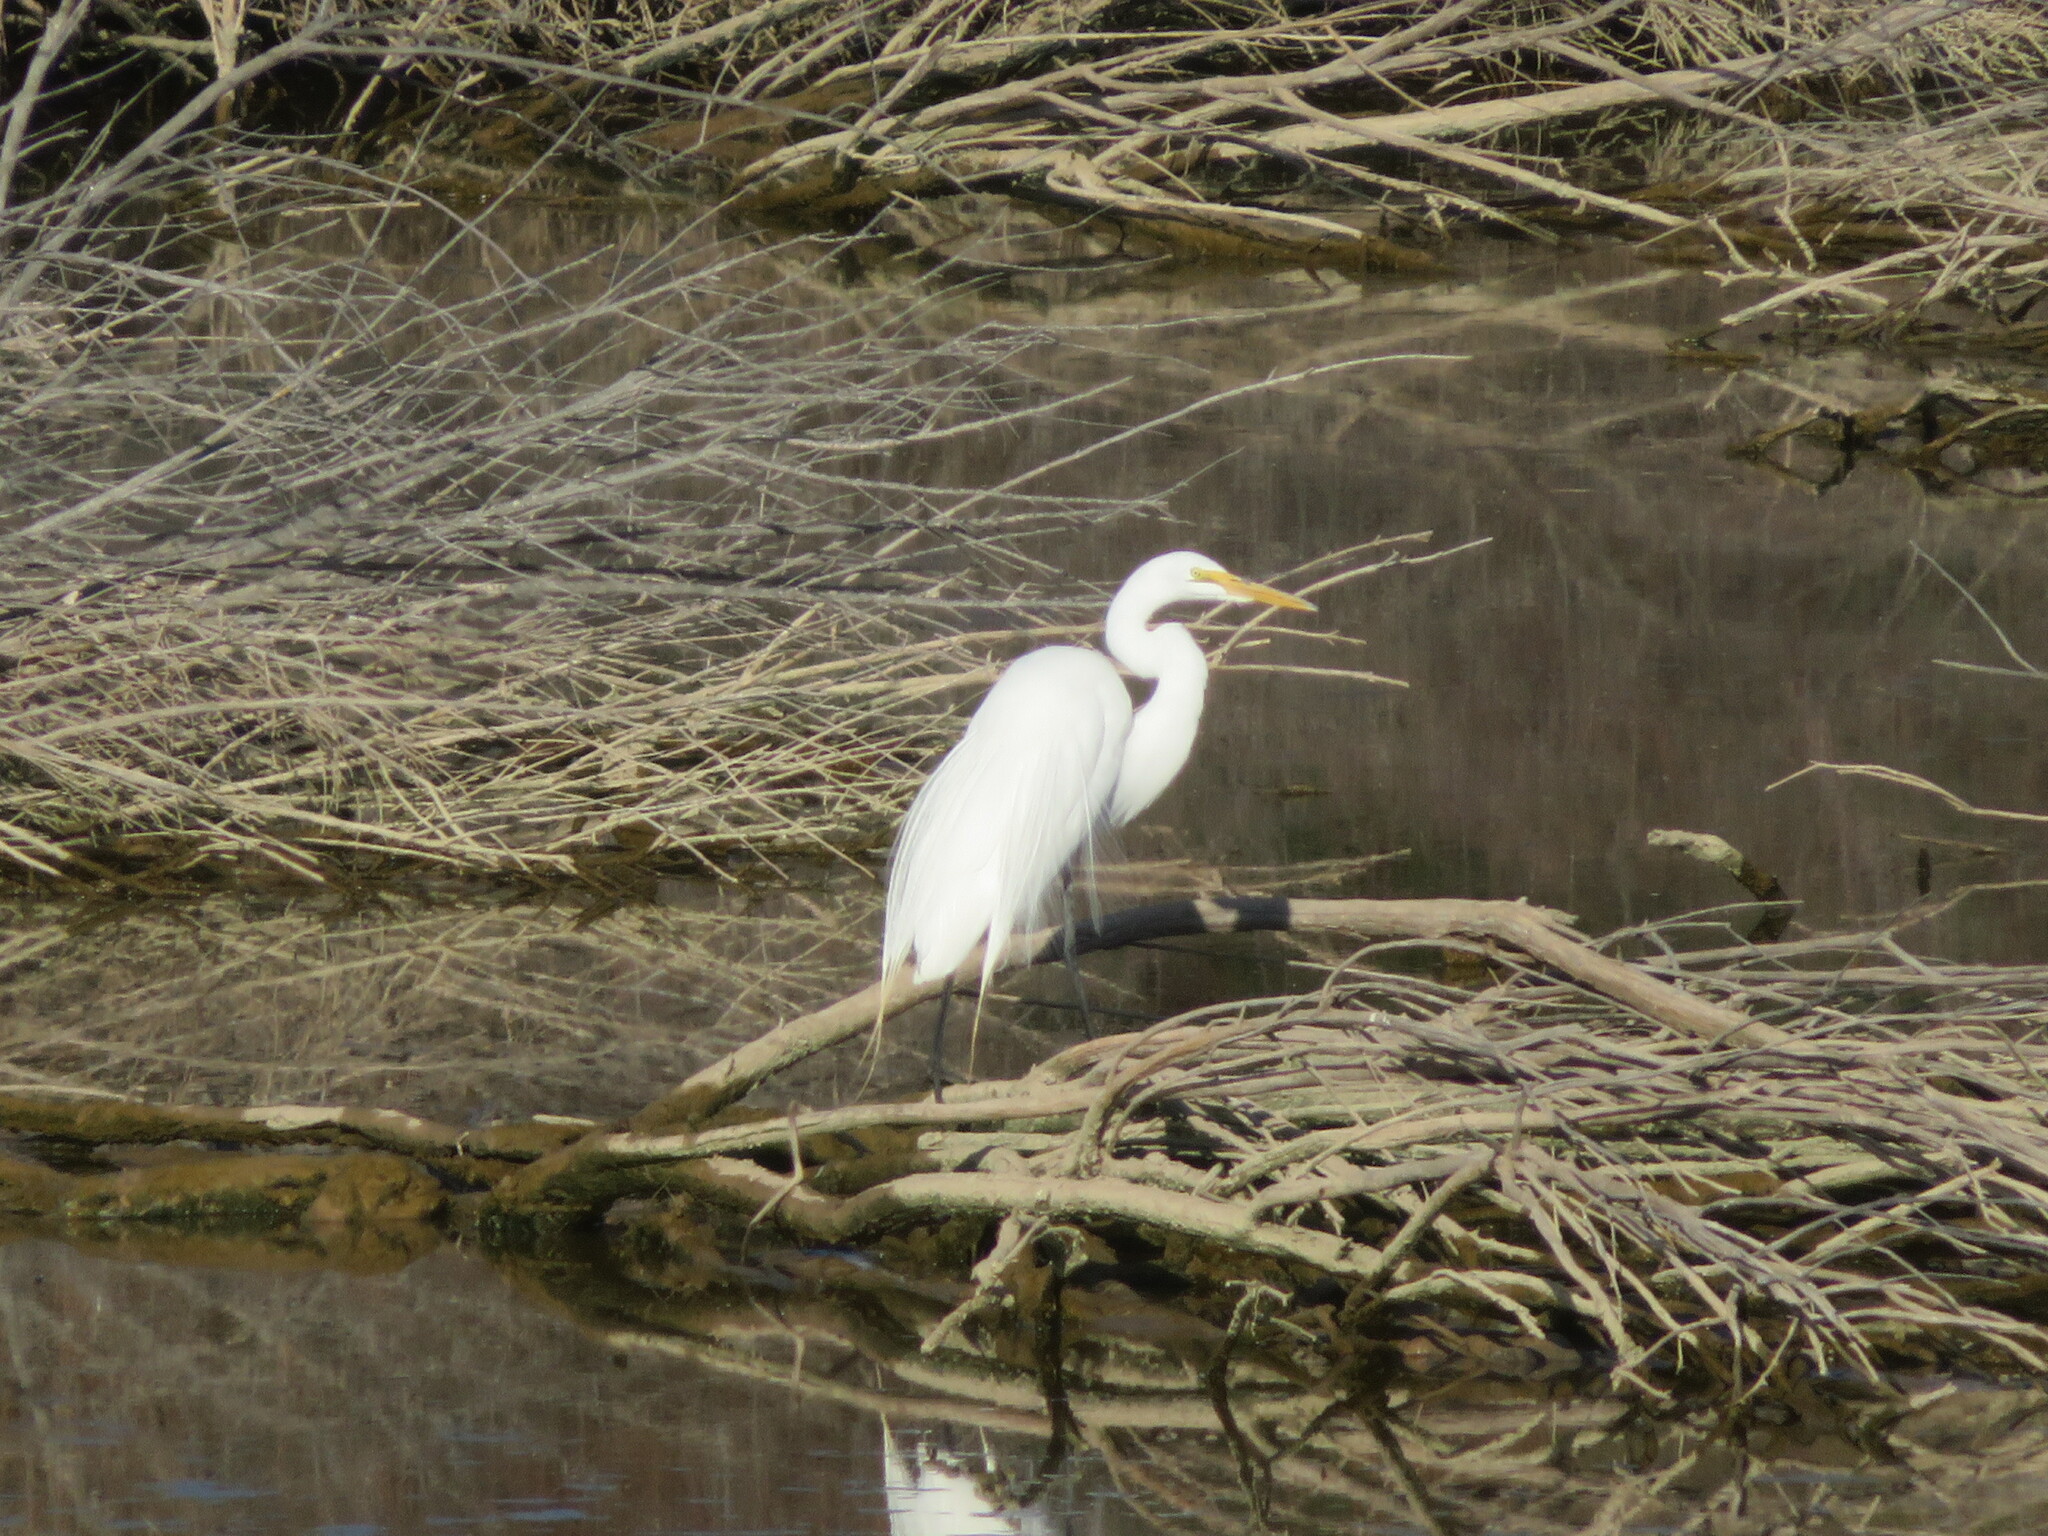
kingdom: Animalia
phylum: Chordata
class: Aves
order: Pelecaniformes
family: Ardeidae
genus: Ardea
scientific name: Ardea alba
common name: Great egret
